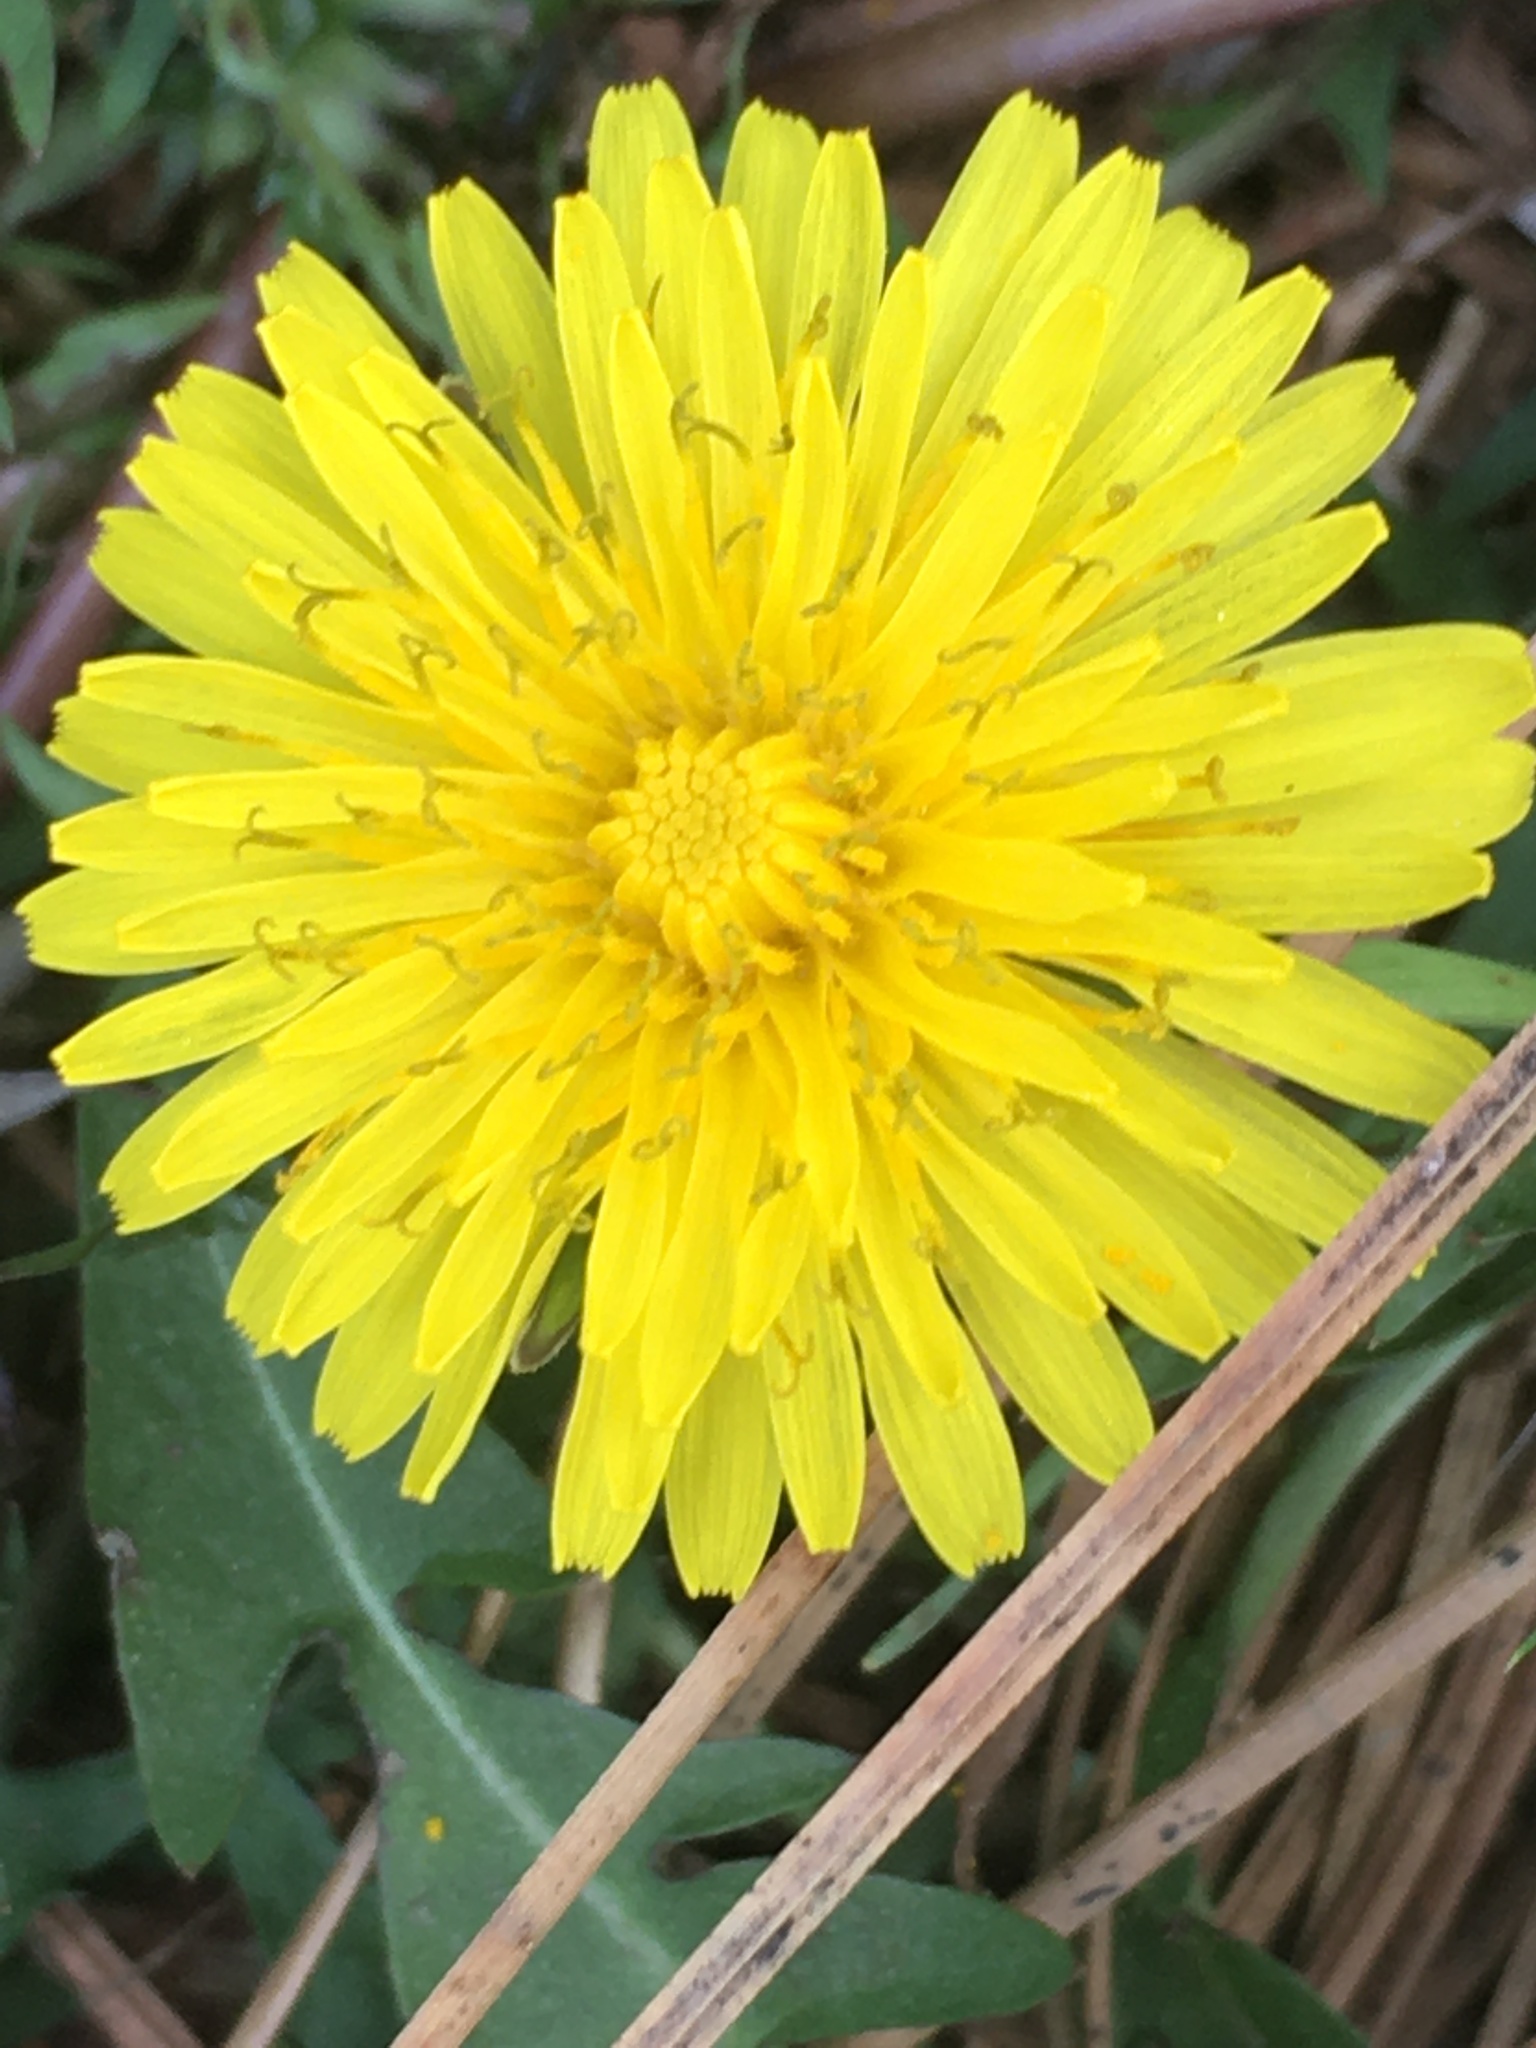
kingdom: Plantae
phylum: Tracheophyta
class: Magnoliopsida
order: Asterales
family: Asteraceae
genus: Taraxacum
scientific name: Taraxacum officinale
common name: Common dandelion
